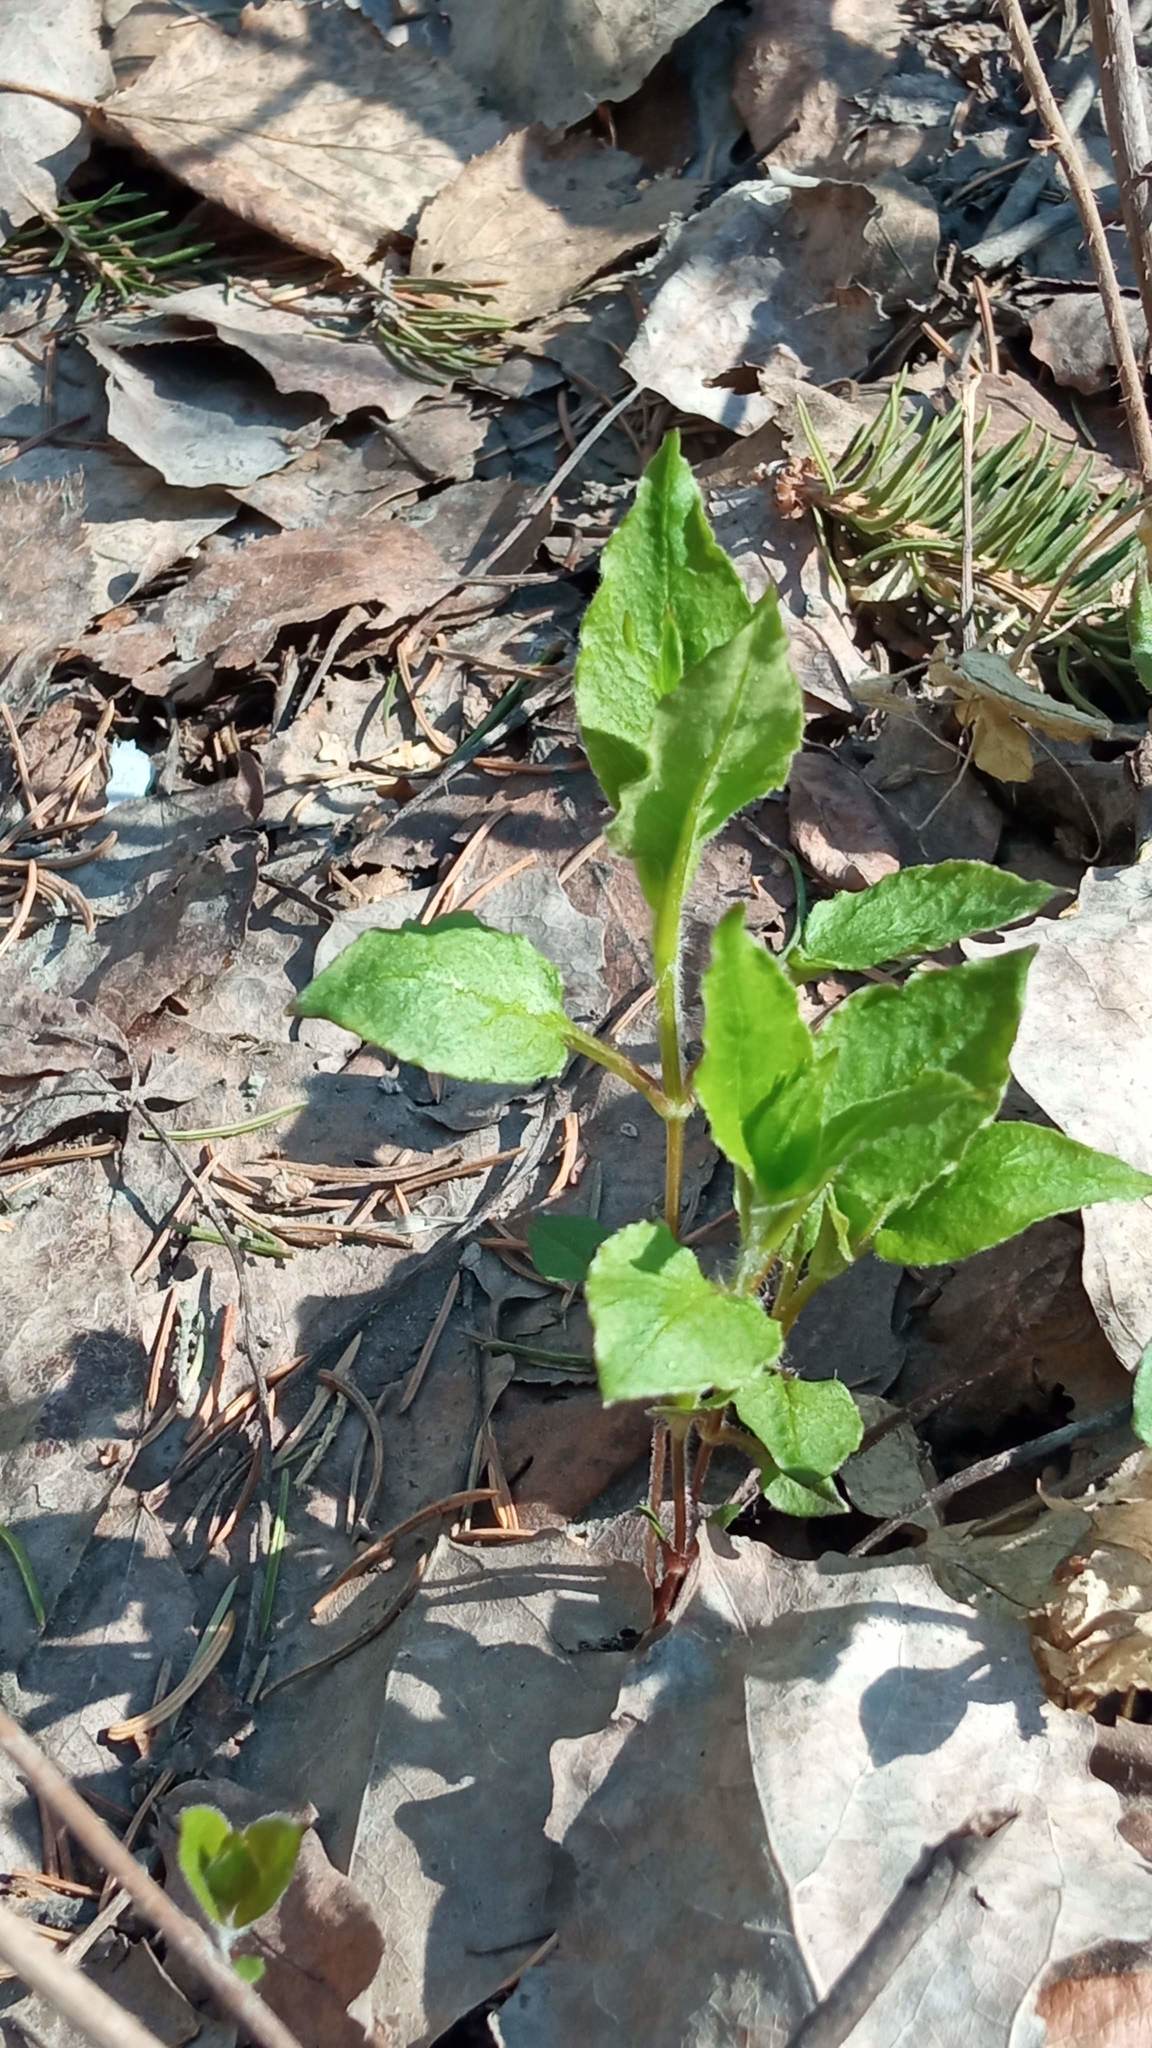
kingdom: Plantae
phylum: Tracheophyta
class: Magnoliopsida
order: Caryophyllales
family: Caryophyllaceae
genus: Stellaria
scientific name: Stellaria bungeana
